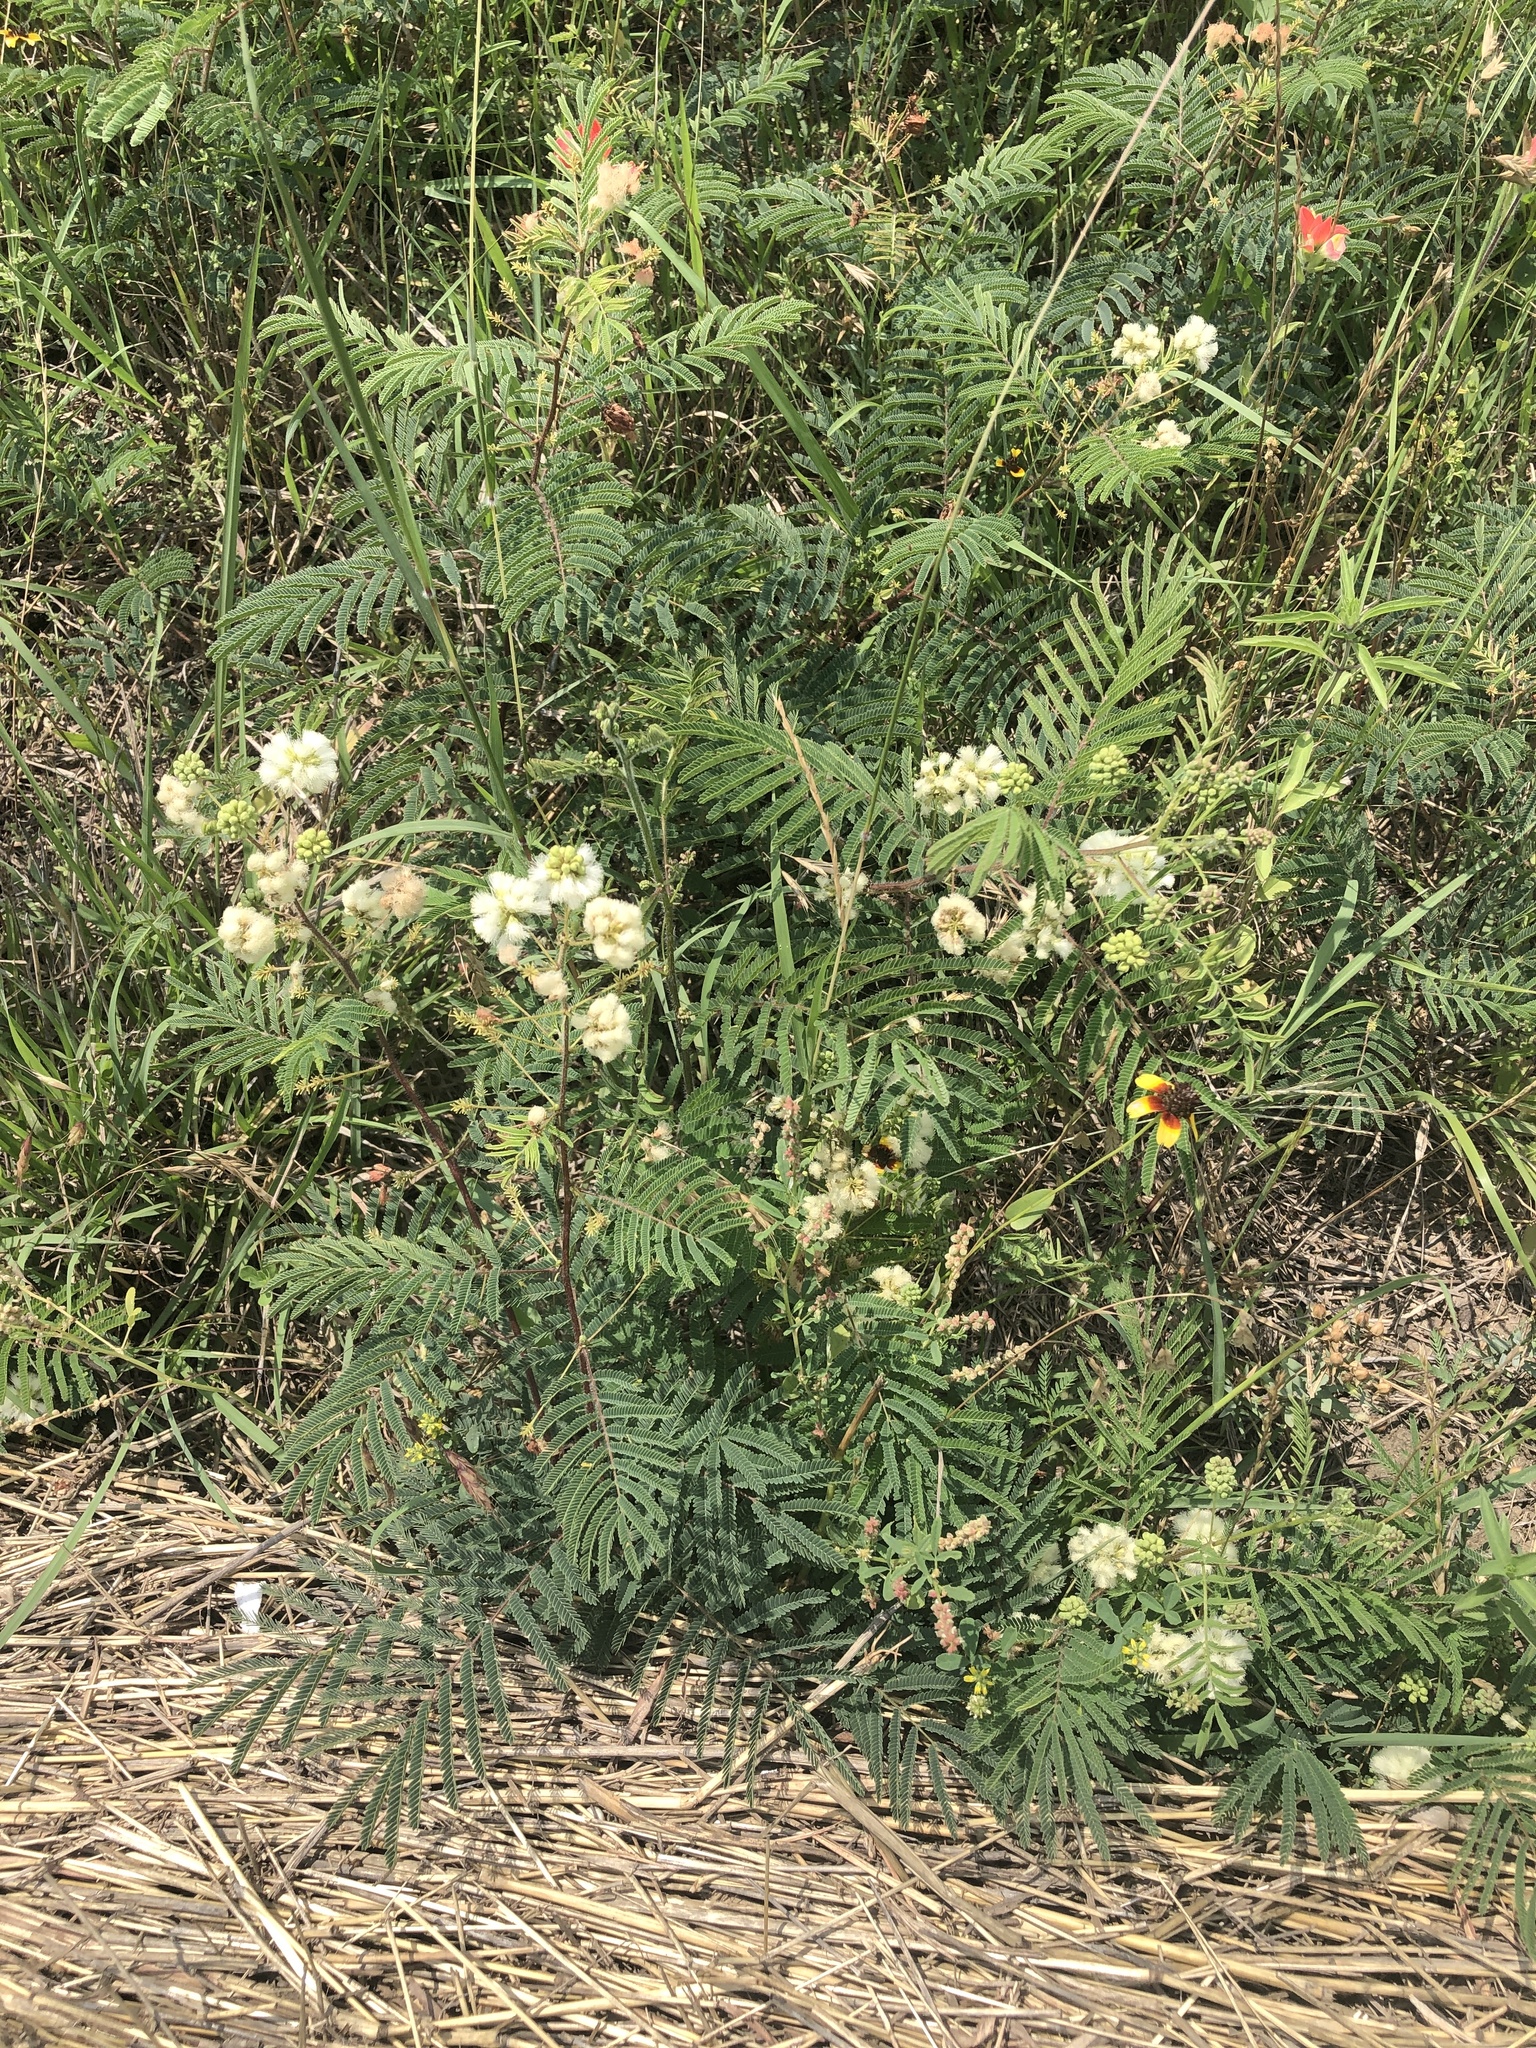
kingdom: Plantae
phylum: Tracheophyta
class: Magnoliopsida
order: Fabales
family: Fabaceae
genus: Acaciella
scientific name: Acaciella angustissima
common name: Prairie acacia
